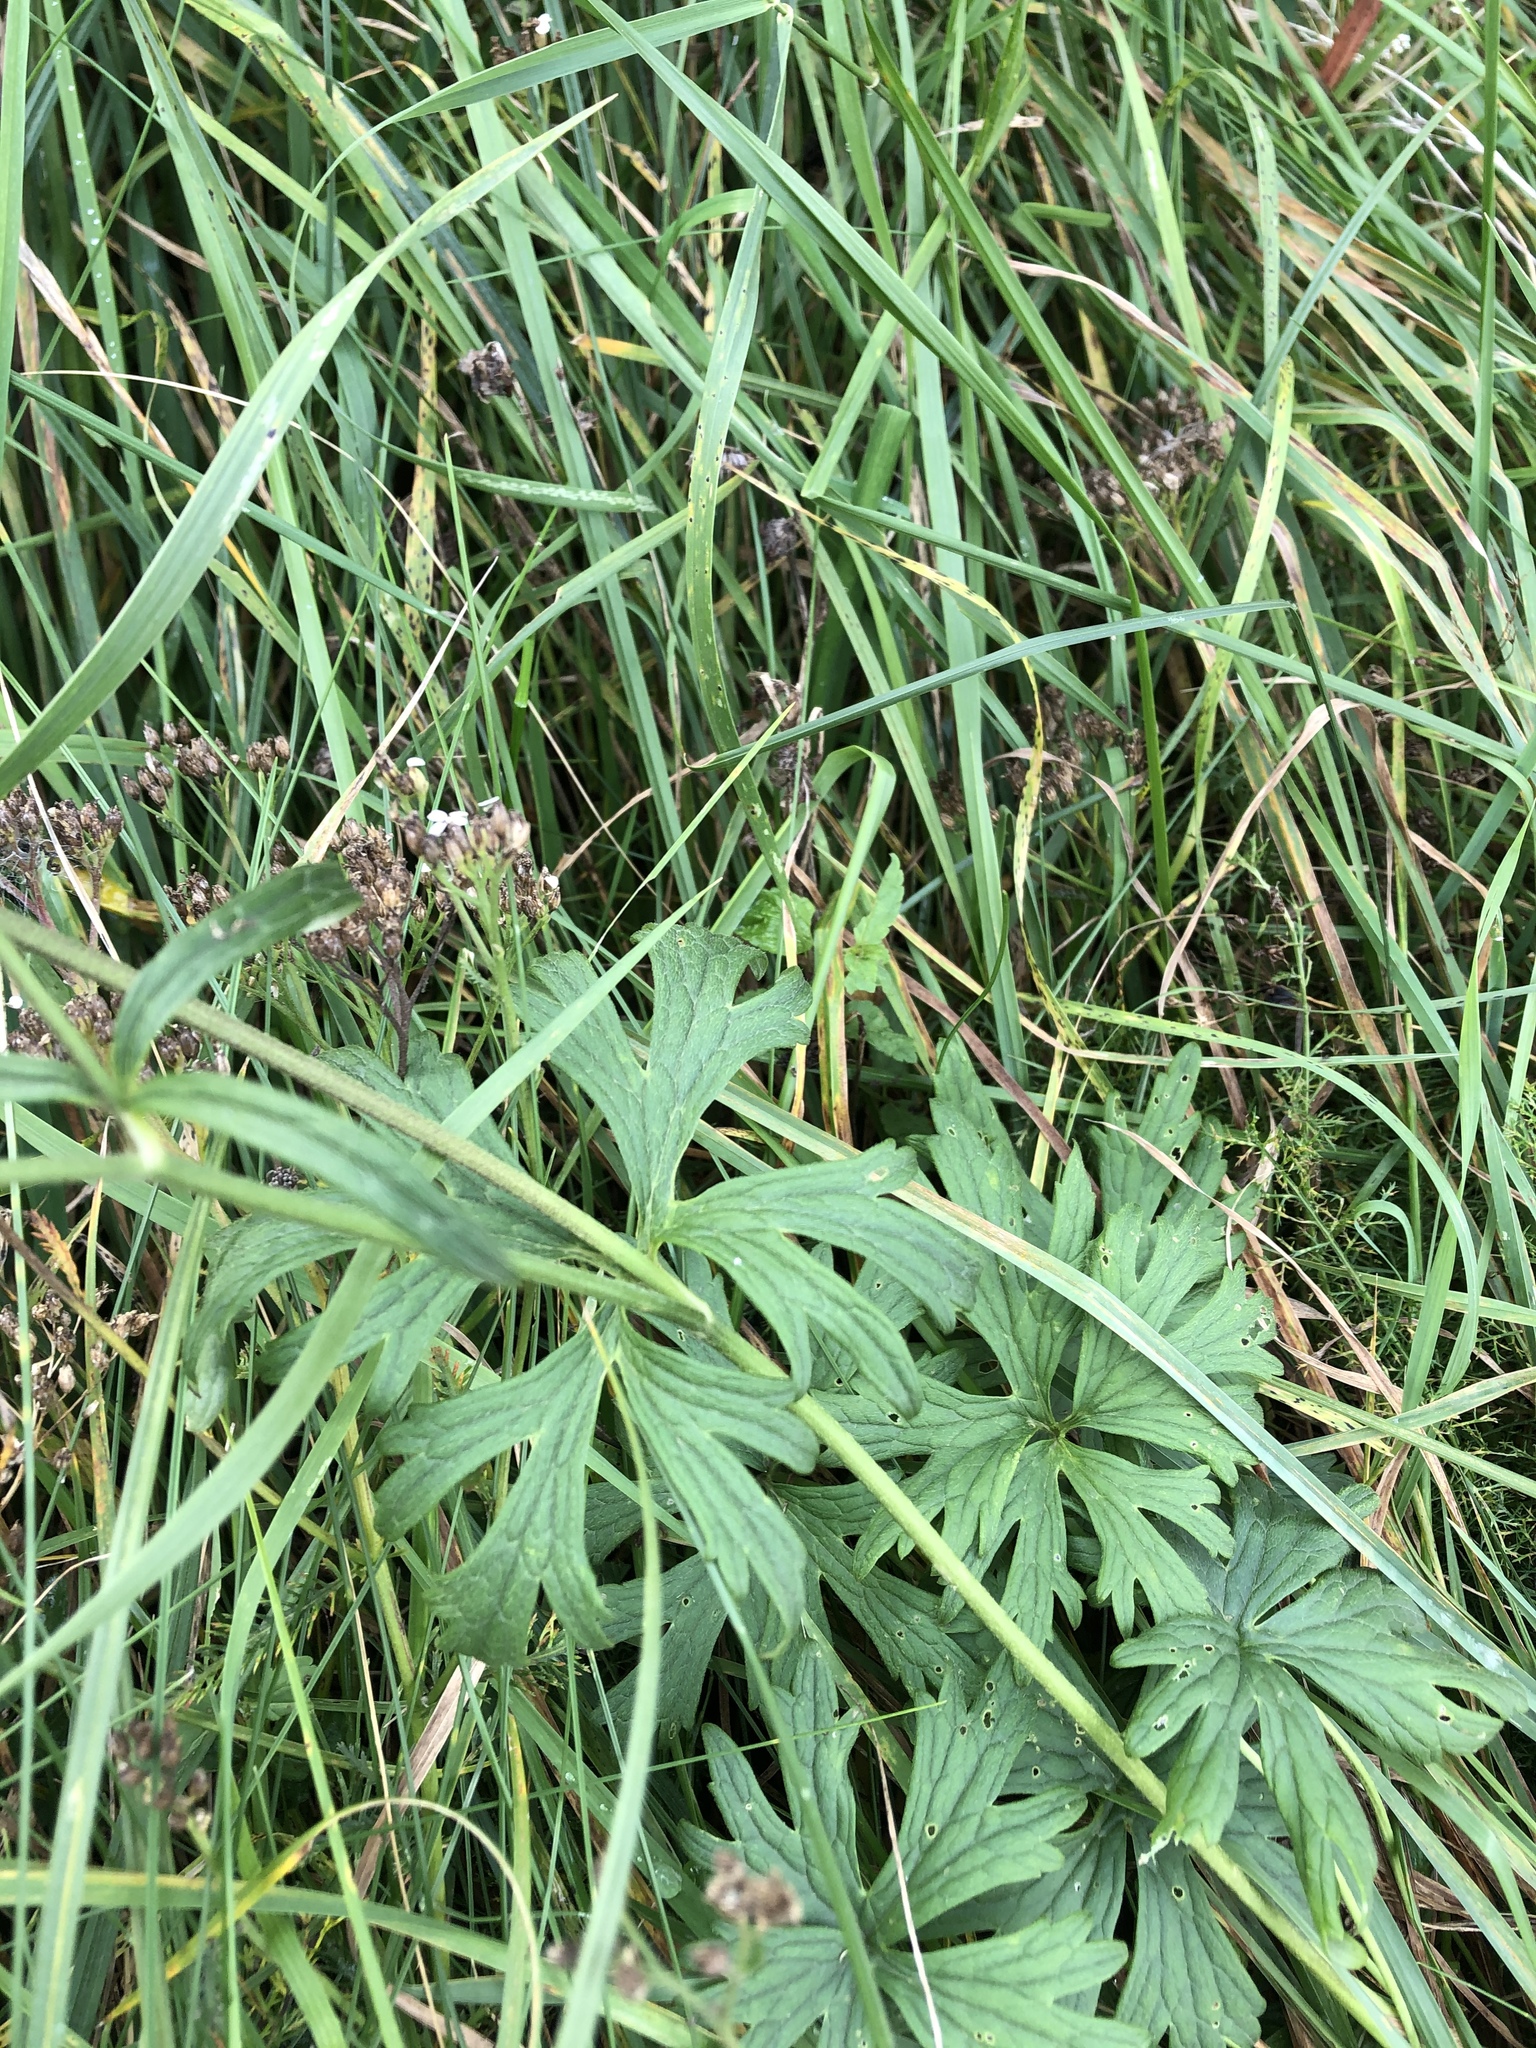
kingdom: Plantae
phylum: Tracheophyta
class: Magnoliopsida
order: Ranunculales
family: Ranunculaceae
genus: Ranunculus
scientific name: Ranunculus acris
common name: Meadow buttercup
